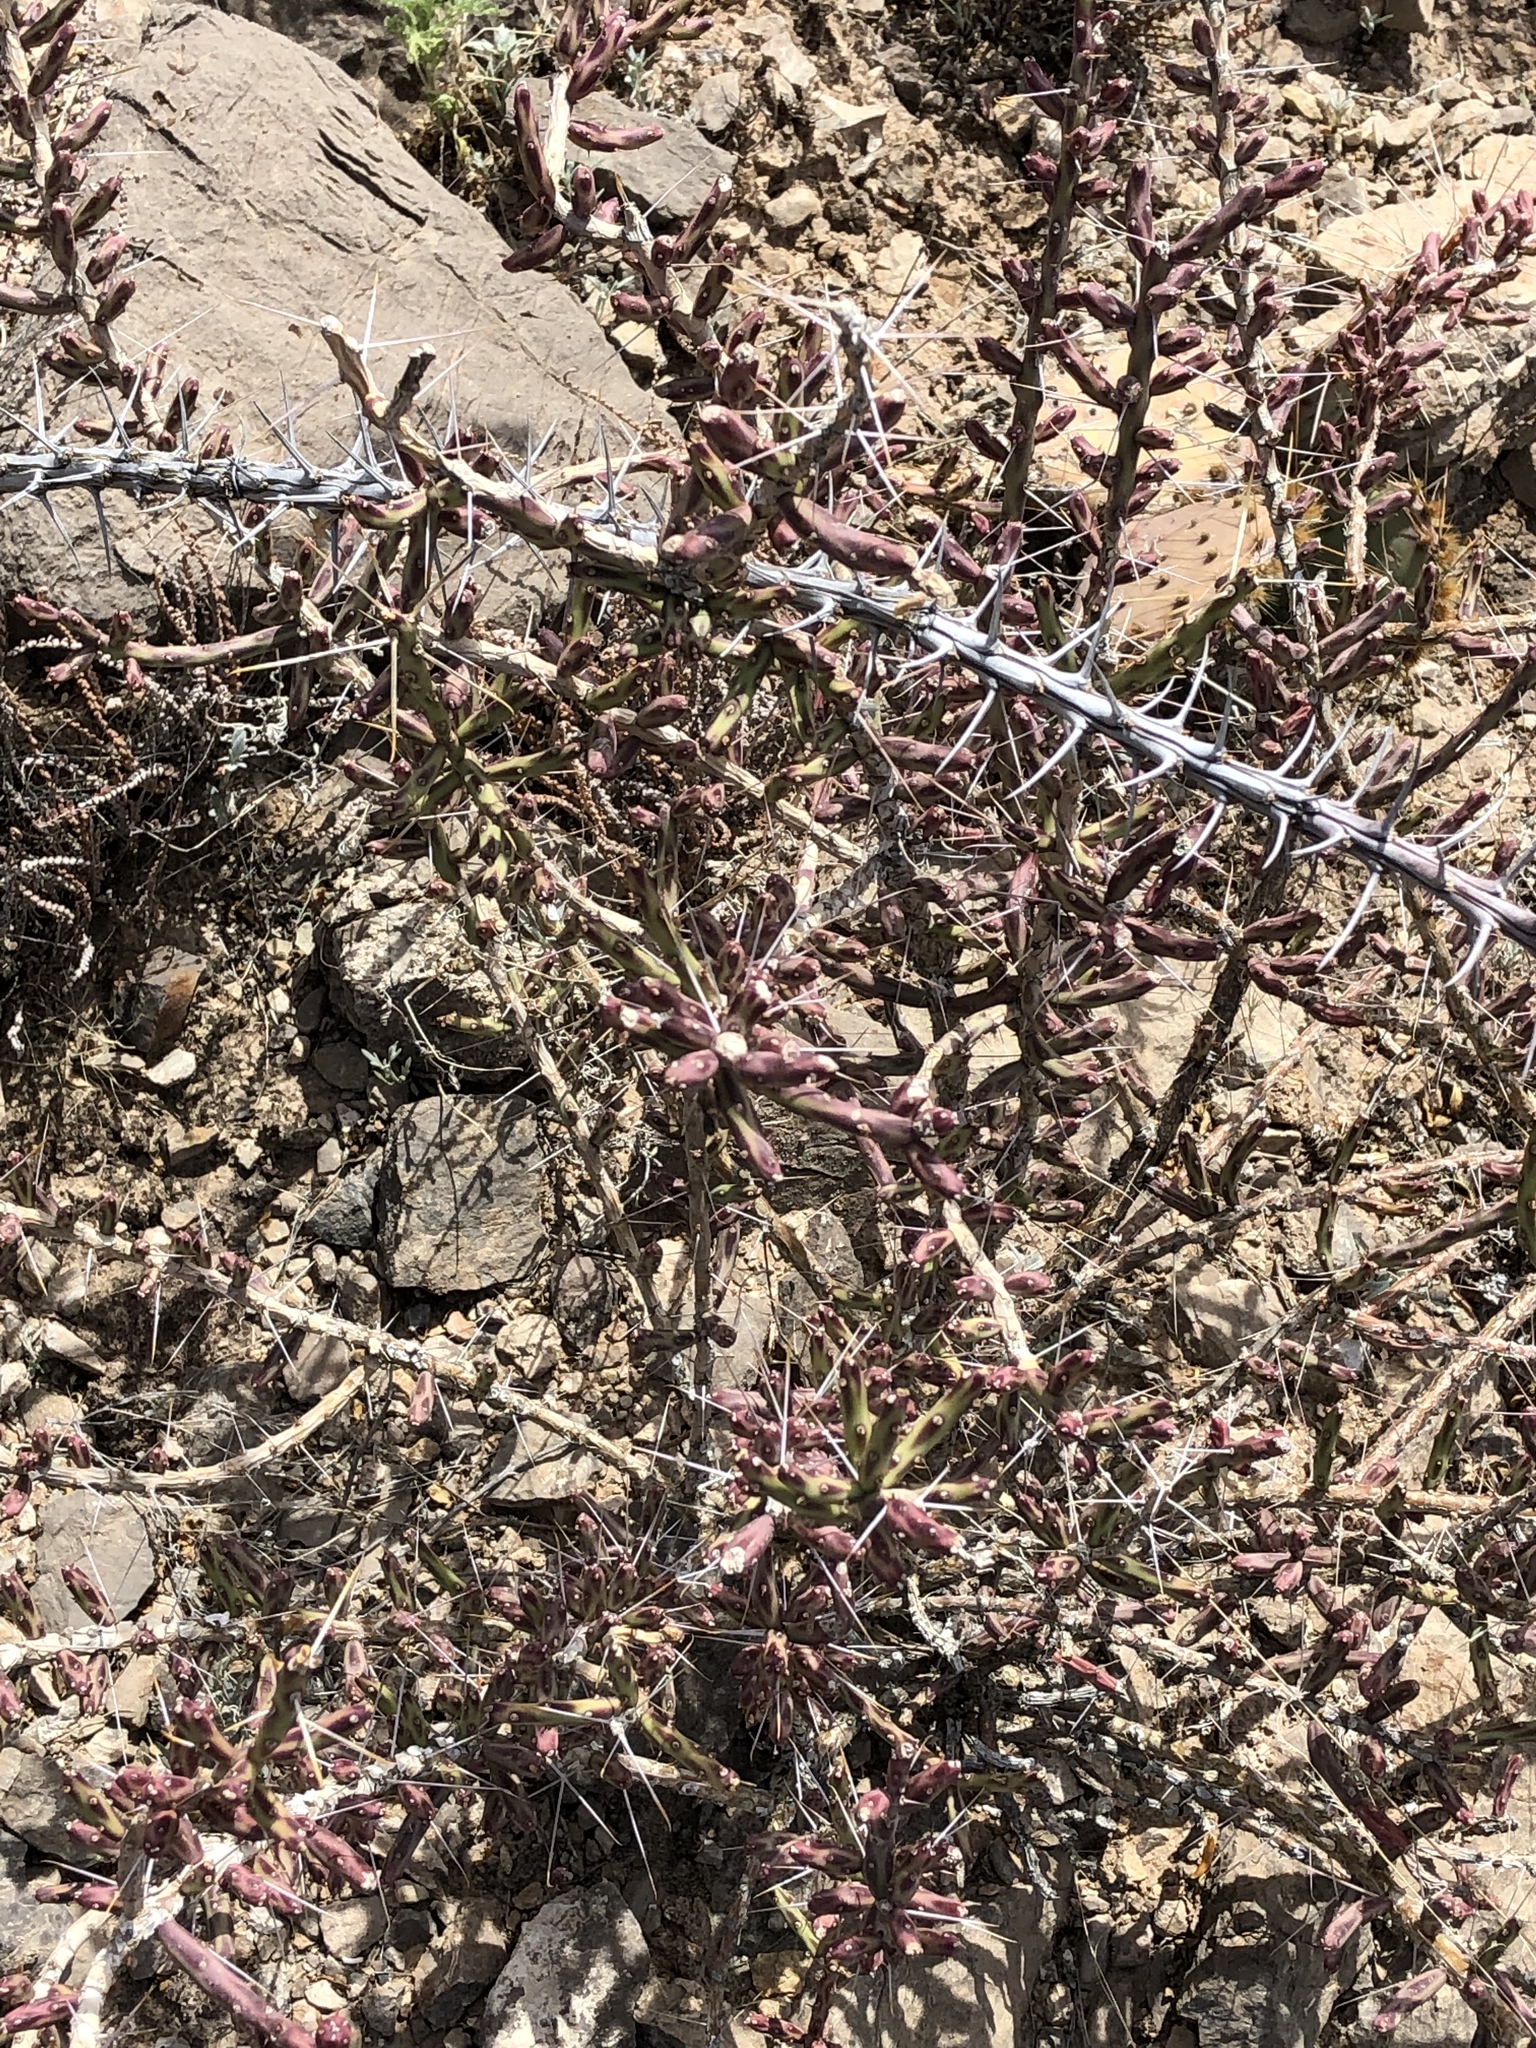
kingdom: Plantae
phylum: Tracheophyta
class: Magnoliopsida
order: Caryophyllales
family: Cactaceae
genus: Cylindropuntia
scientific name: Cylindropuntia leptocaulis
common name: Christmas cactus
